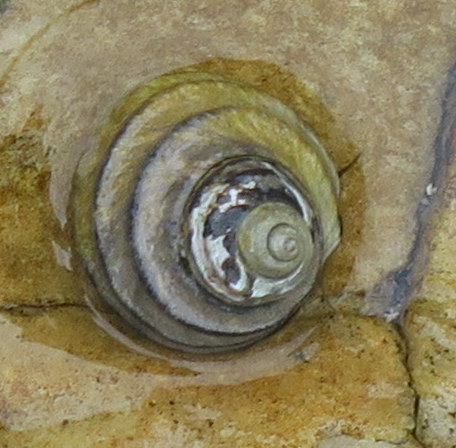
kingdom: Animalia
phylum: Mollusca
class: Gastropoda
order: Trochida
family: Trochidae
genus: Austrocochlea
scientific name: Austrocochlea constricta
